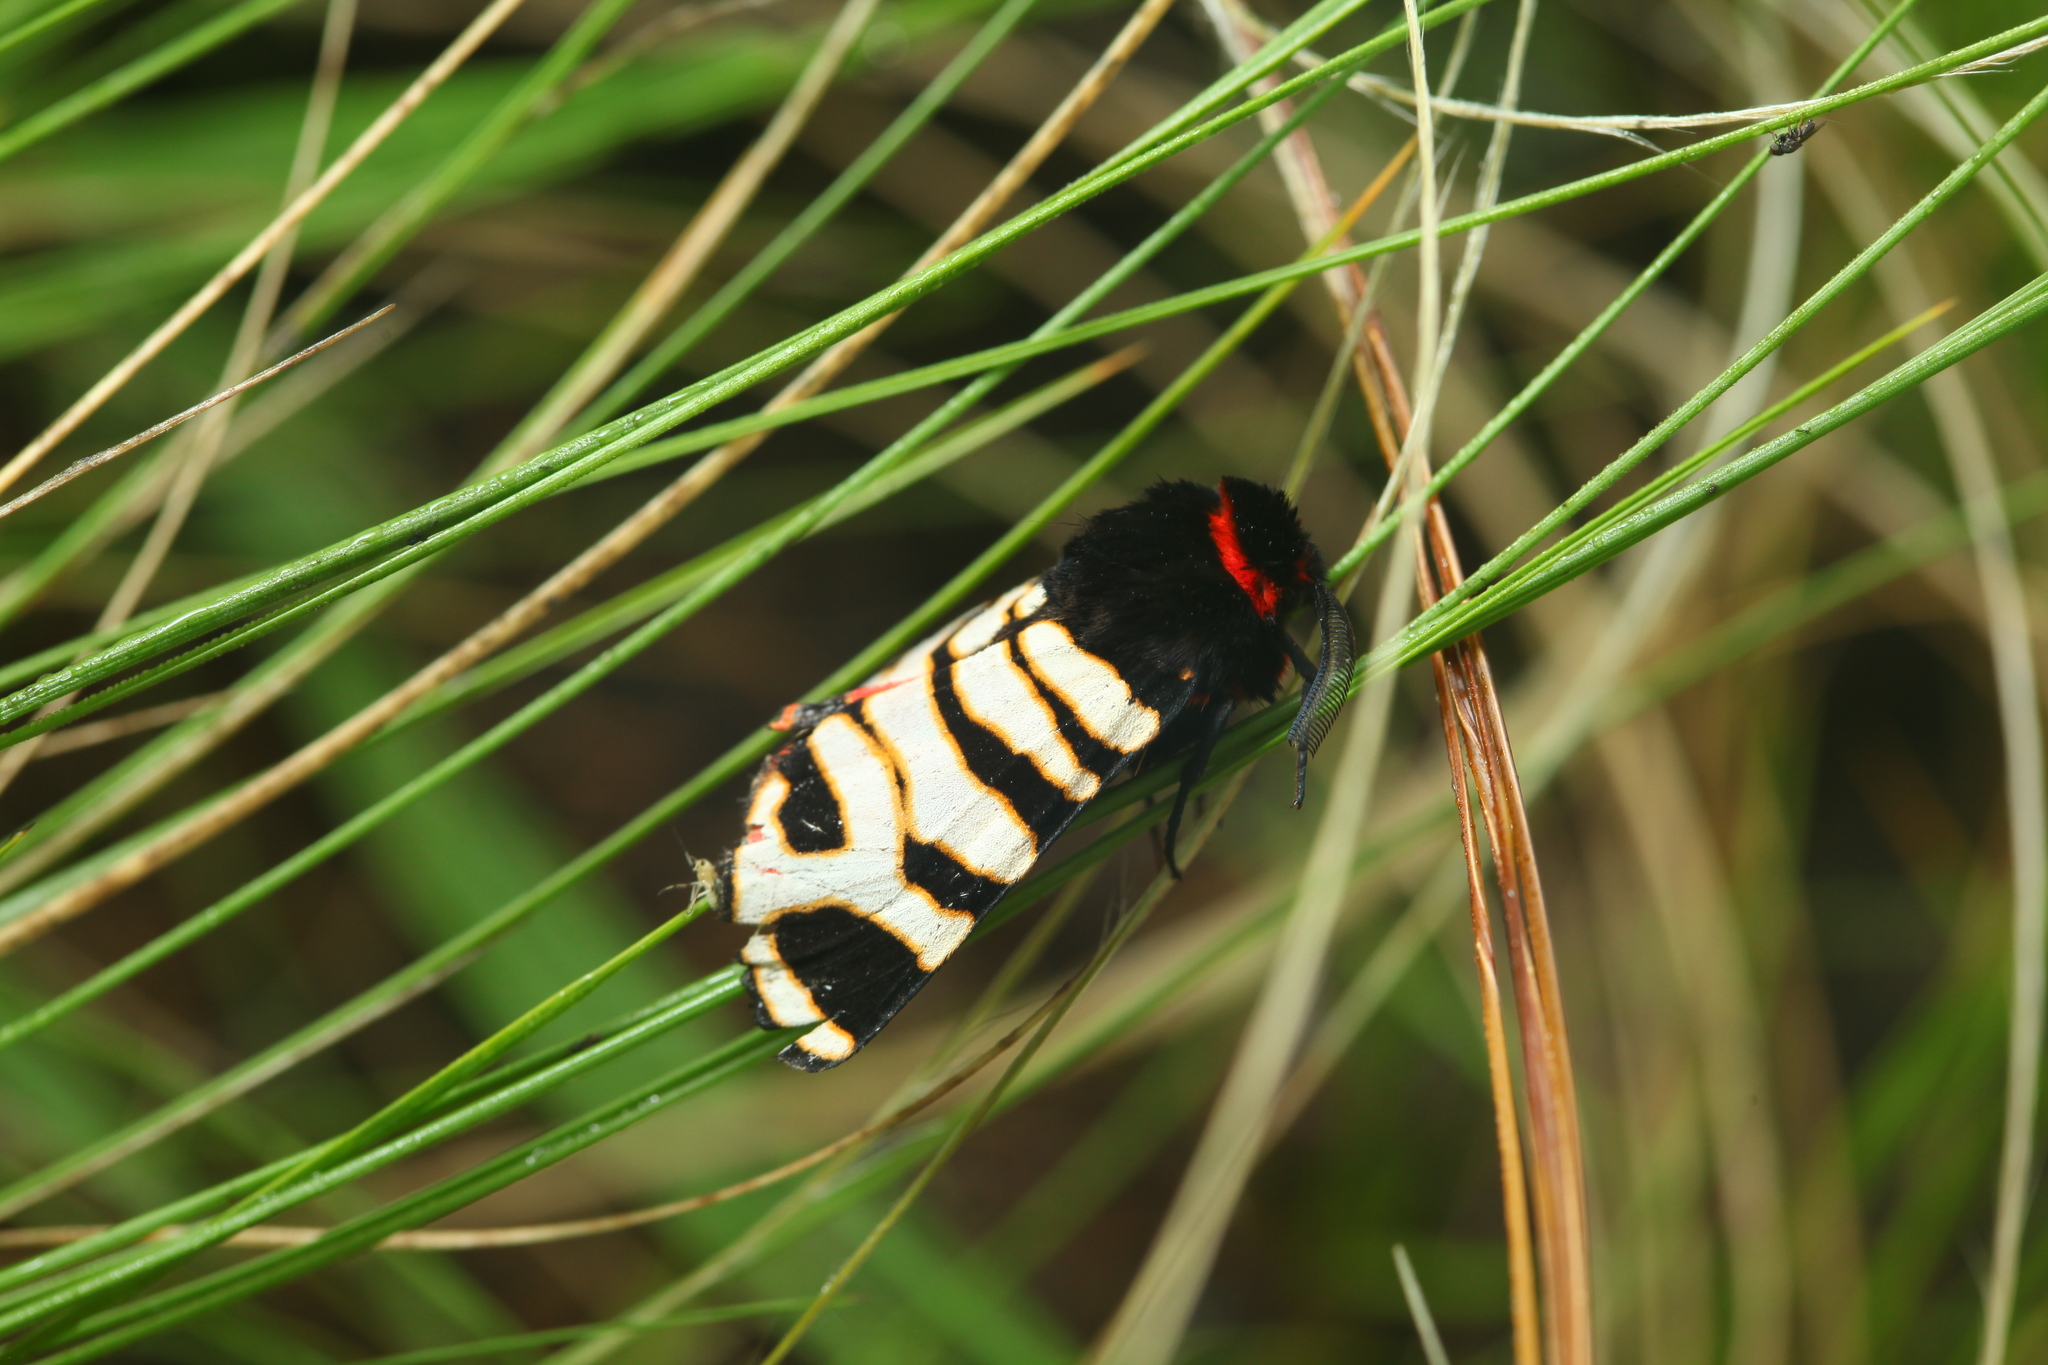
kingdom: Animalia
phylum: Arthropoda
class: Insecta
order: Lepidoptera
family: Erebidae
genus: Eucharia
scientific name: Eucharia festiva
